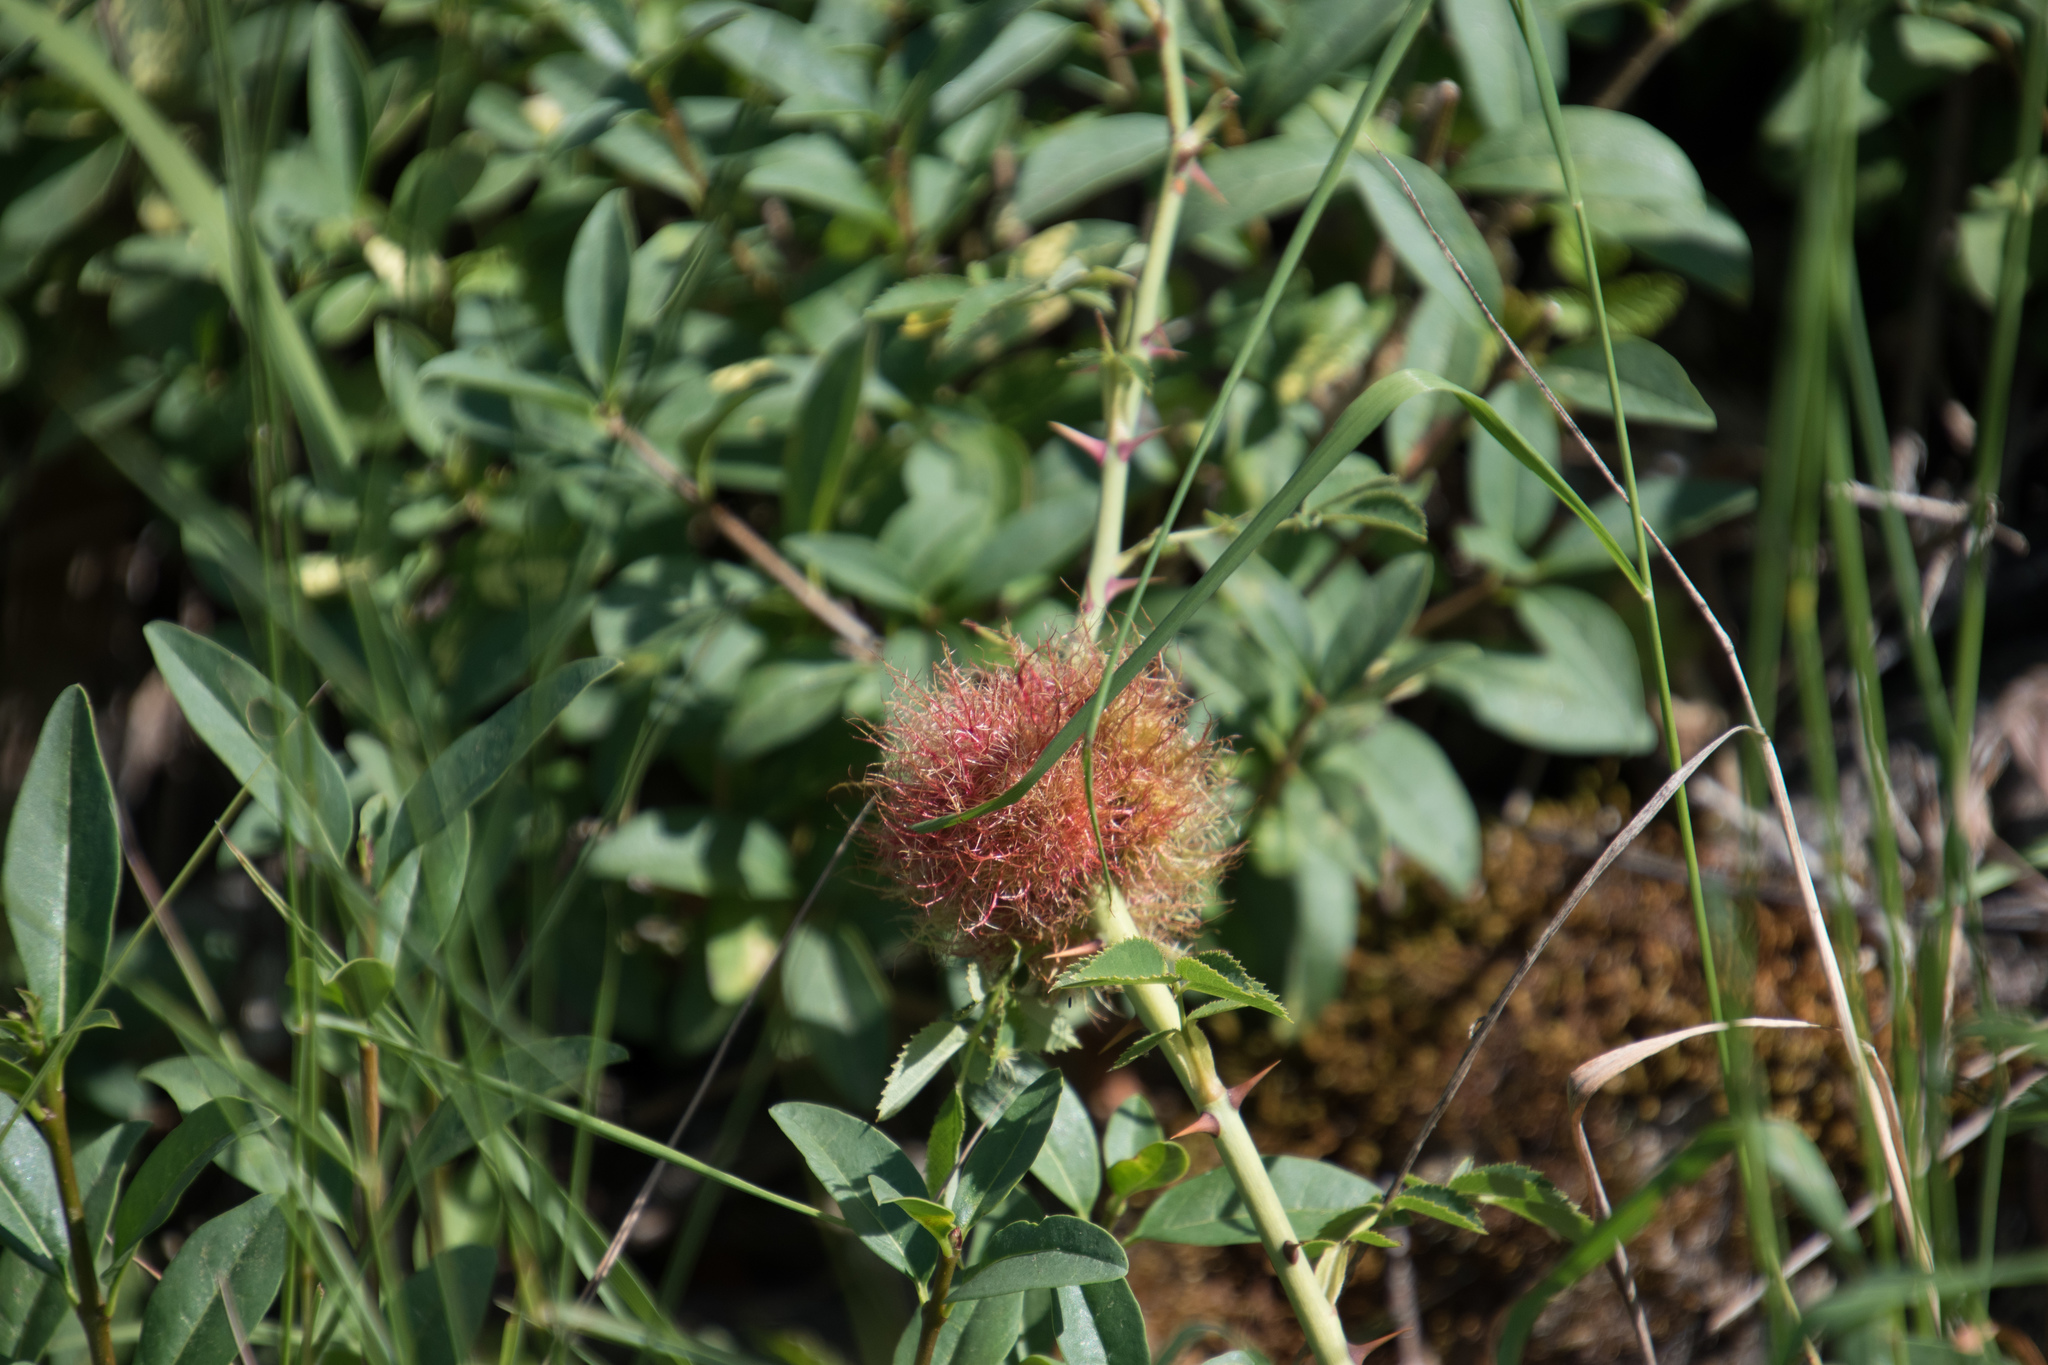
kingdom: Animalia
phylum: Arthropoda
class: Insecta
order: Hymenoptera
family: Cynipidae
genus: Diplolepis
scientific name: Diplolepis rosae
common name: Bedeguar gall
